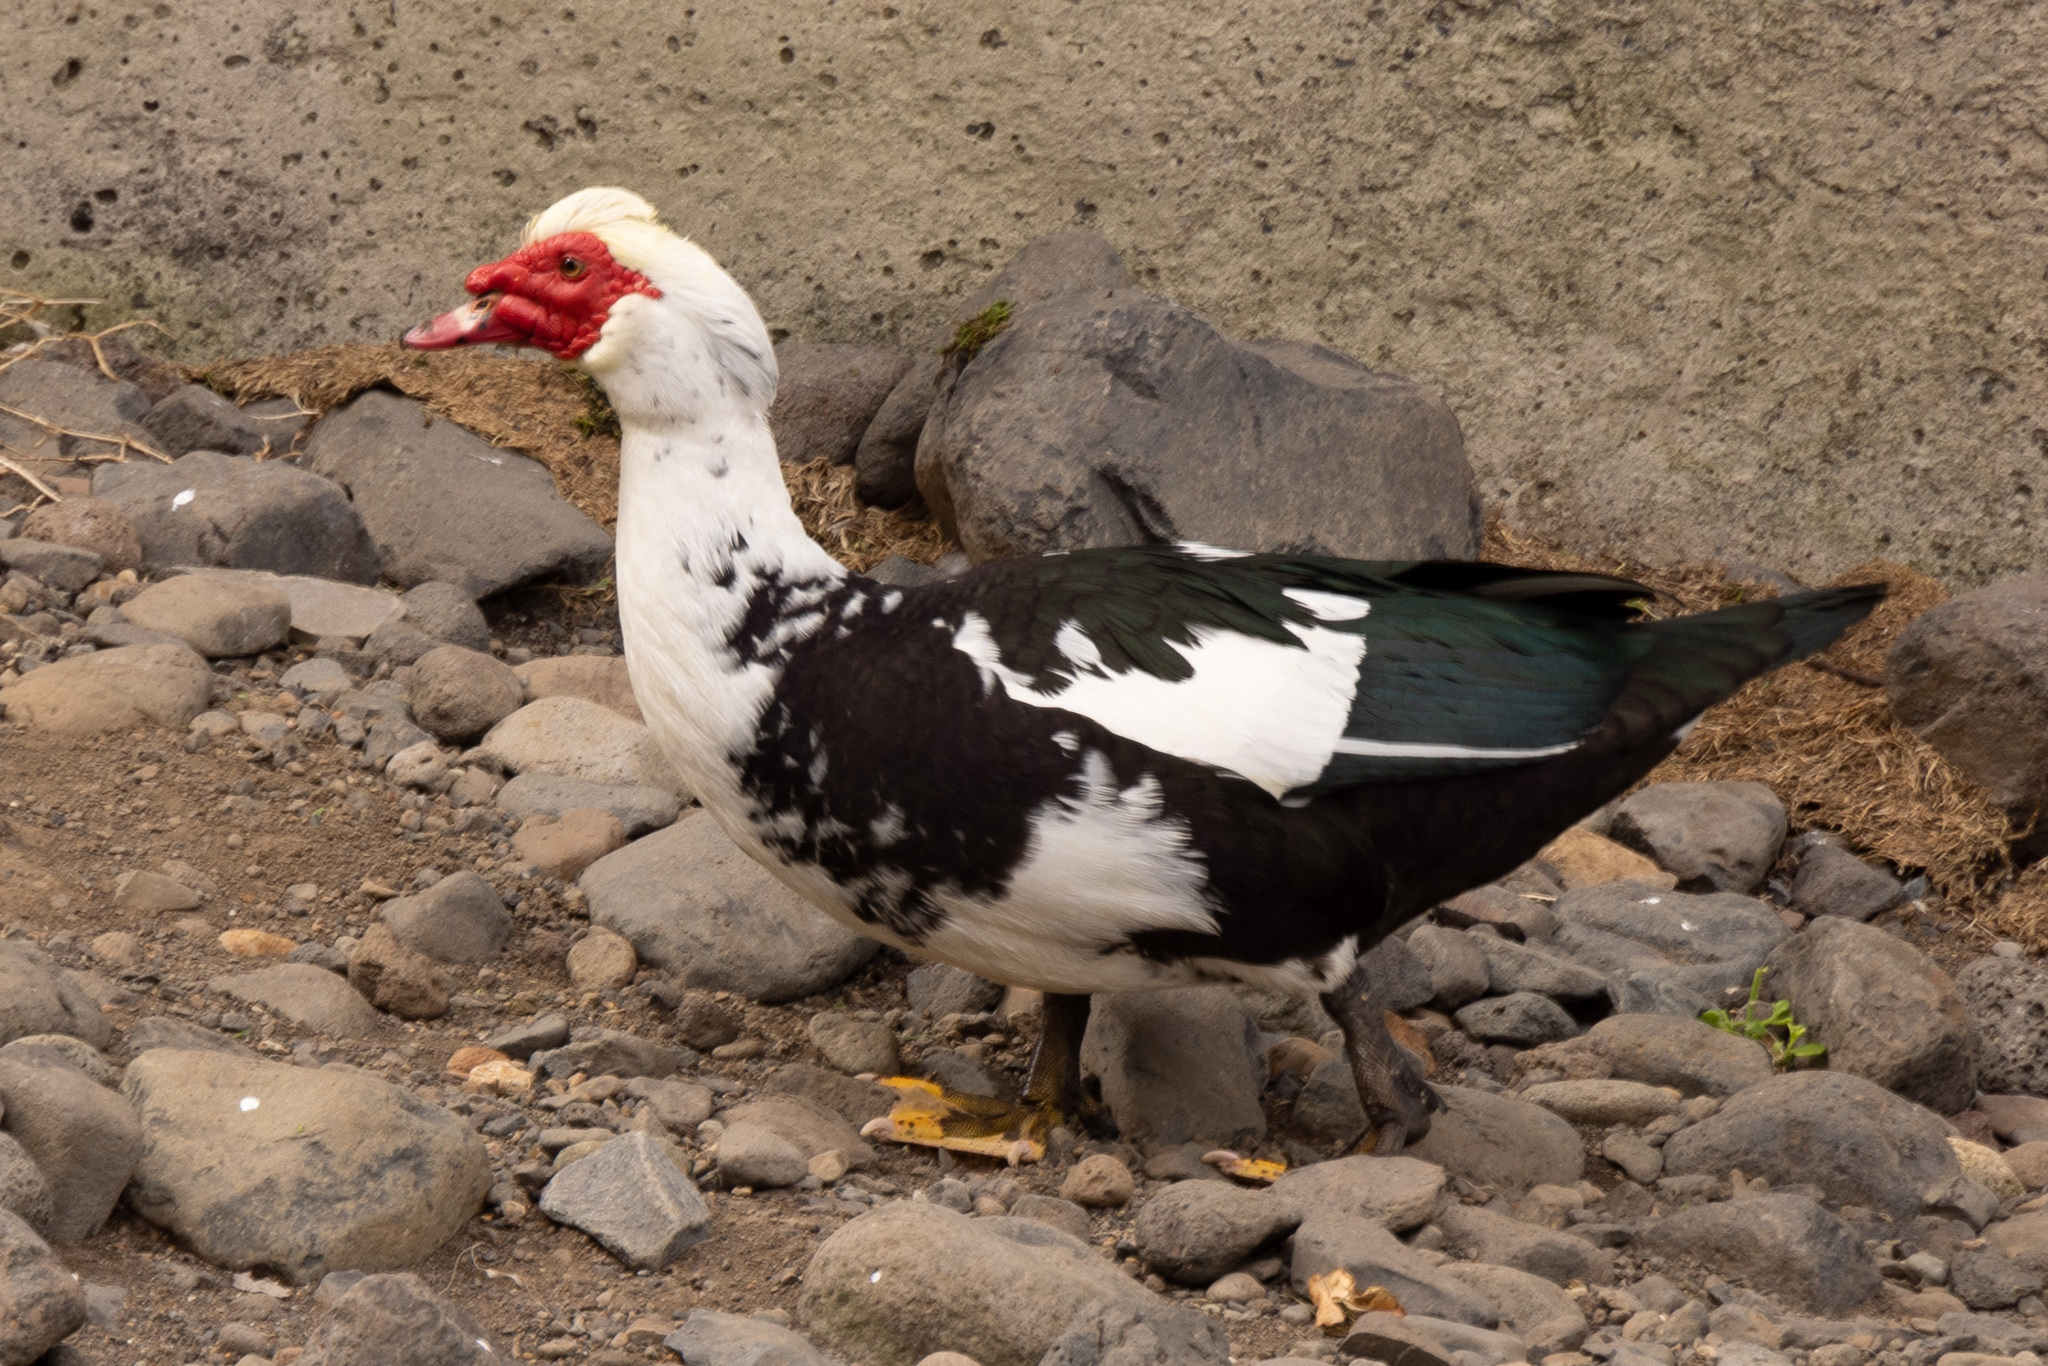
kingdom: Animalia
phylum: Chordata
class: Aves
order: Anseriformes
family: Anatidae
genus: Cairina
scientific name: Cairina moschata
